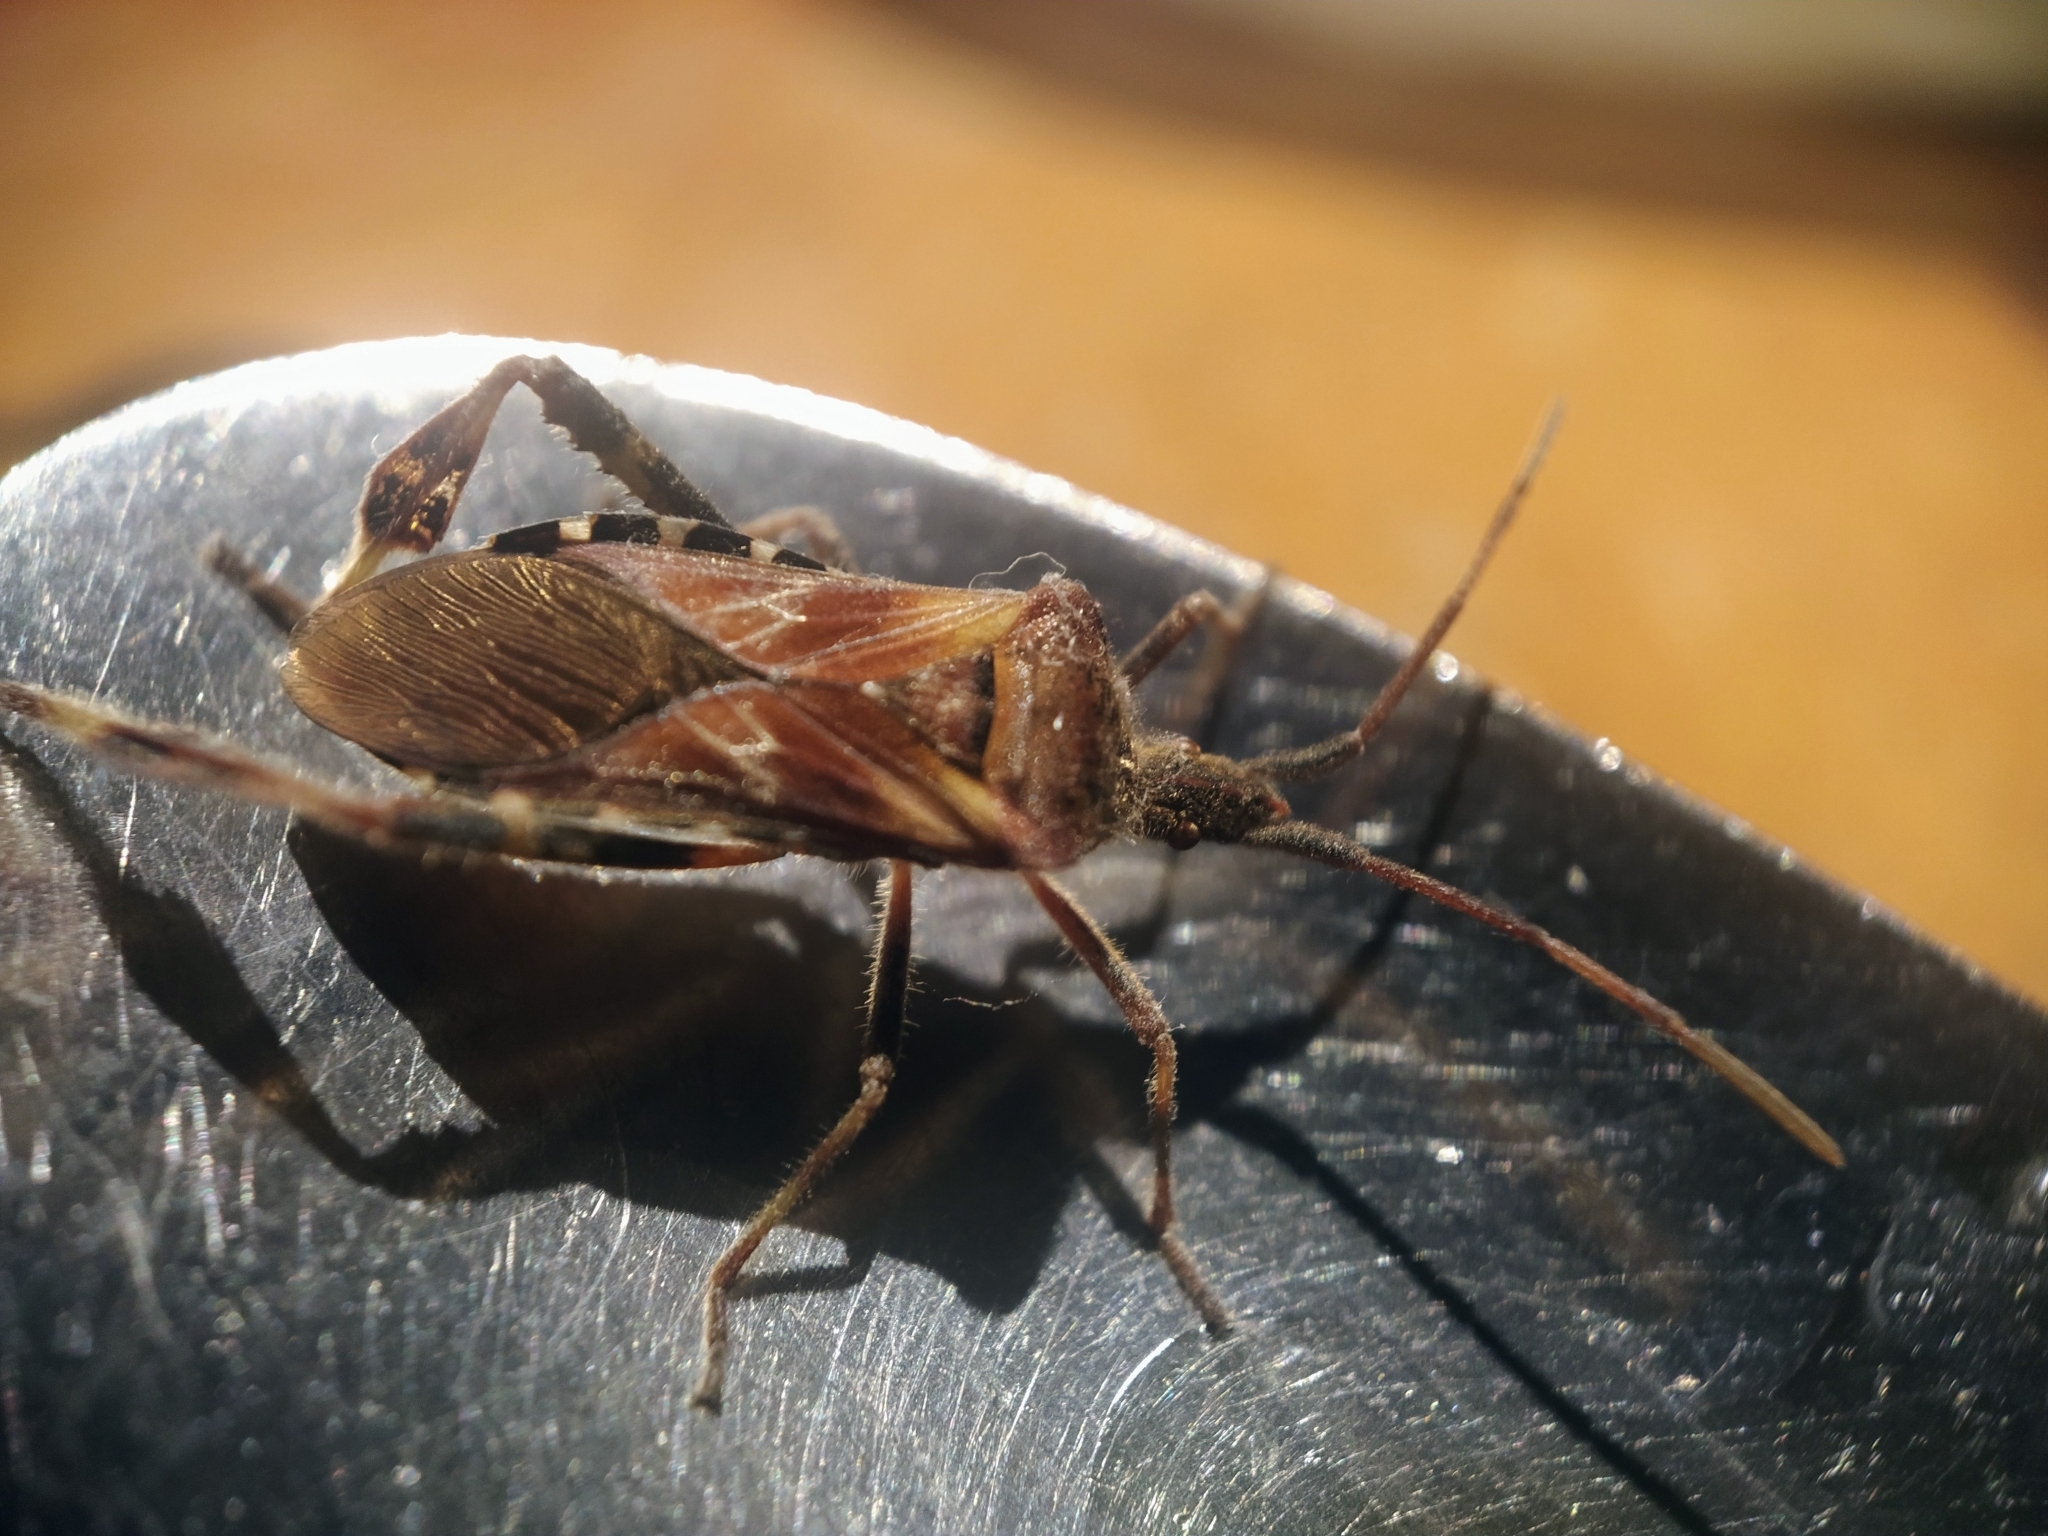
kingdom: Animalia
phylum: Arthropoda
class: Insecta
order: Hemiptera
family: Coreidae
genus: Leptoglossus
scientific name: Leptoglossus occidentalis
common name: Western conifer-seed bug
